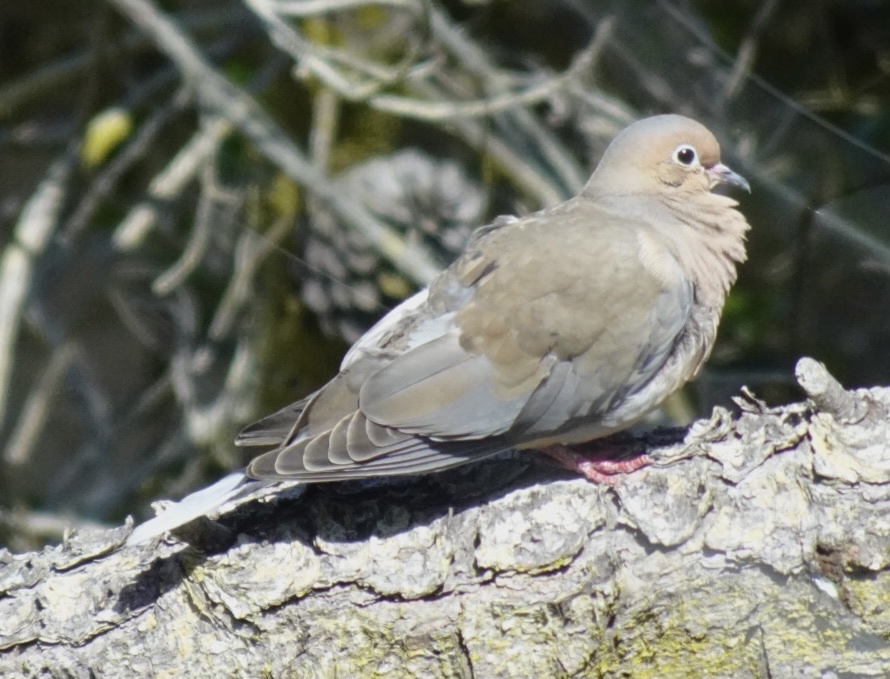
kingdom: Animalia
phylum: Chordata
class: Aves
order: Columbiformes
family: Columbidae
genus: Zenaida
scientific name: Zenaida macroura
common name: Mourning dove
